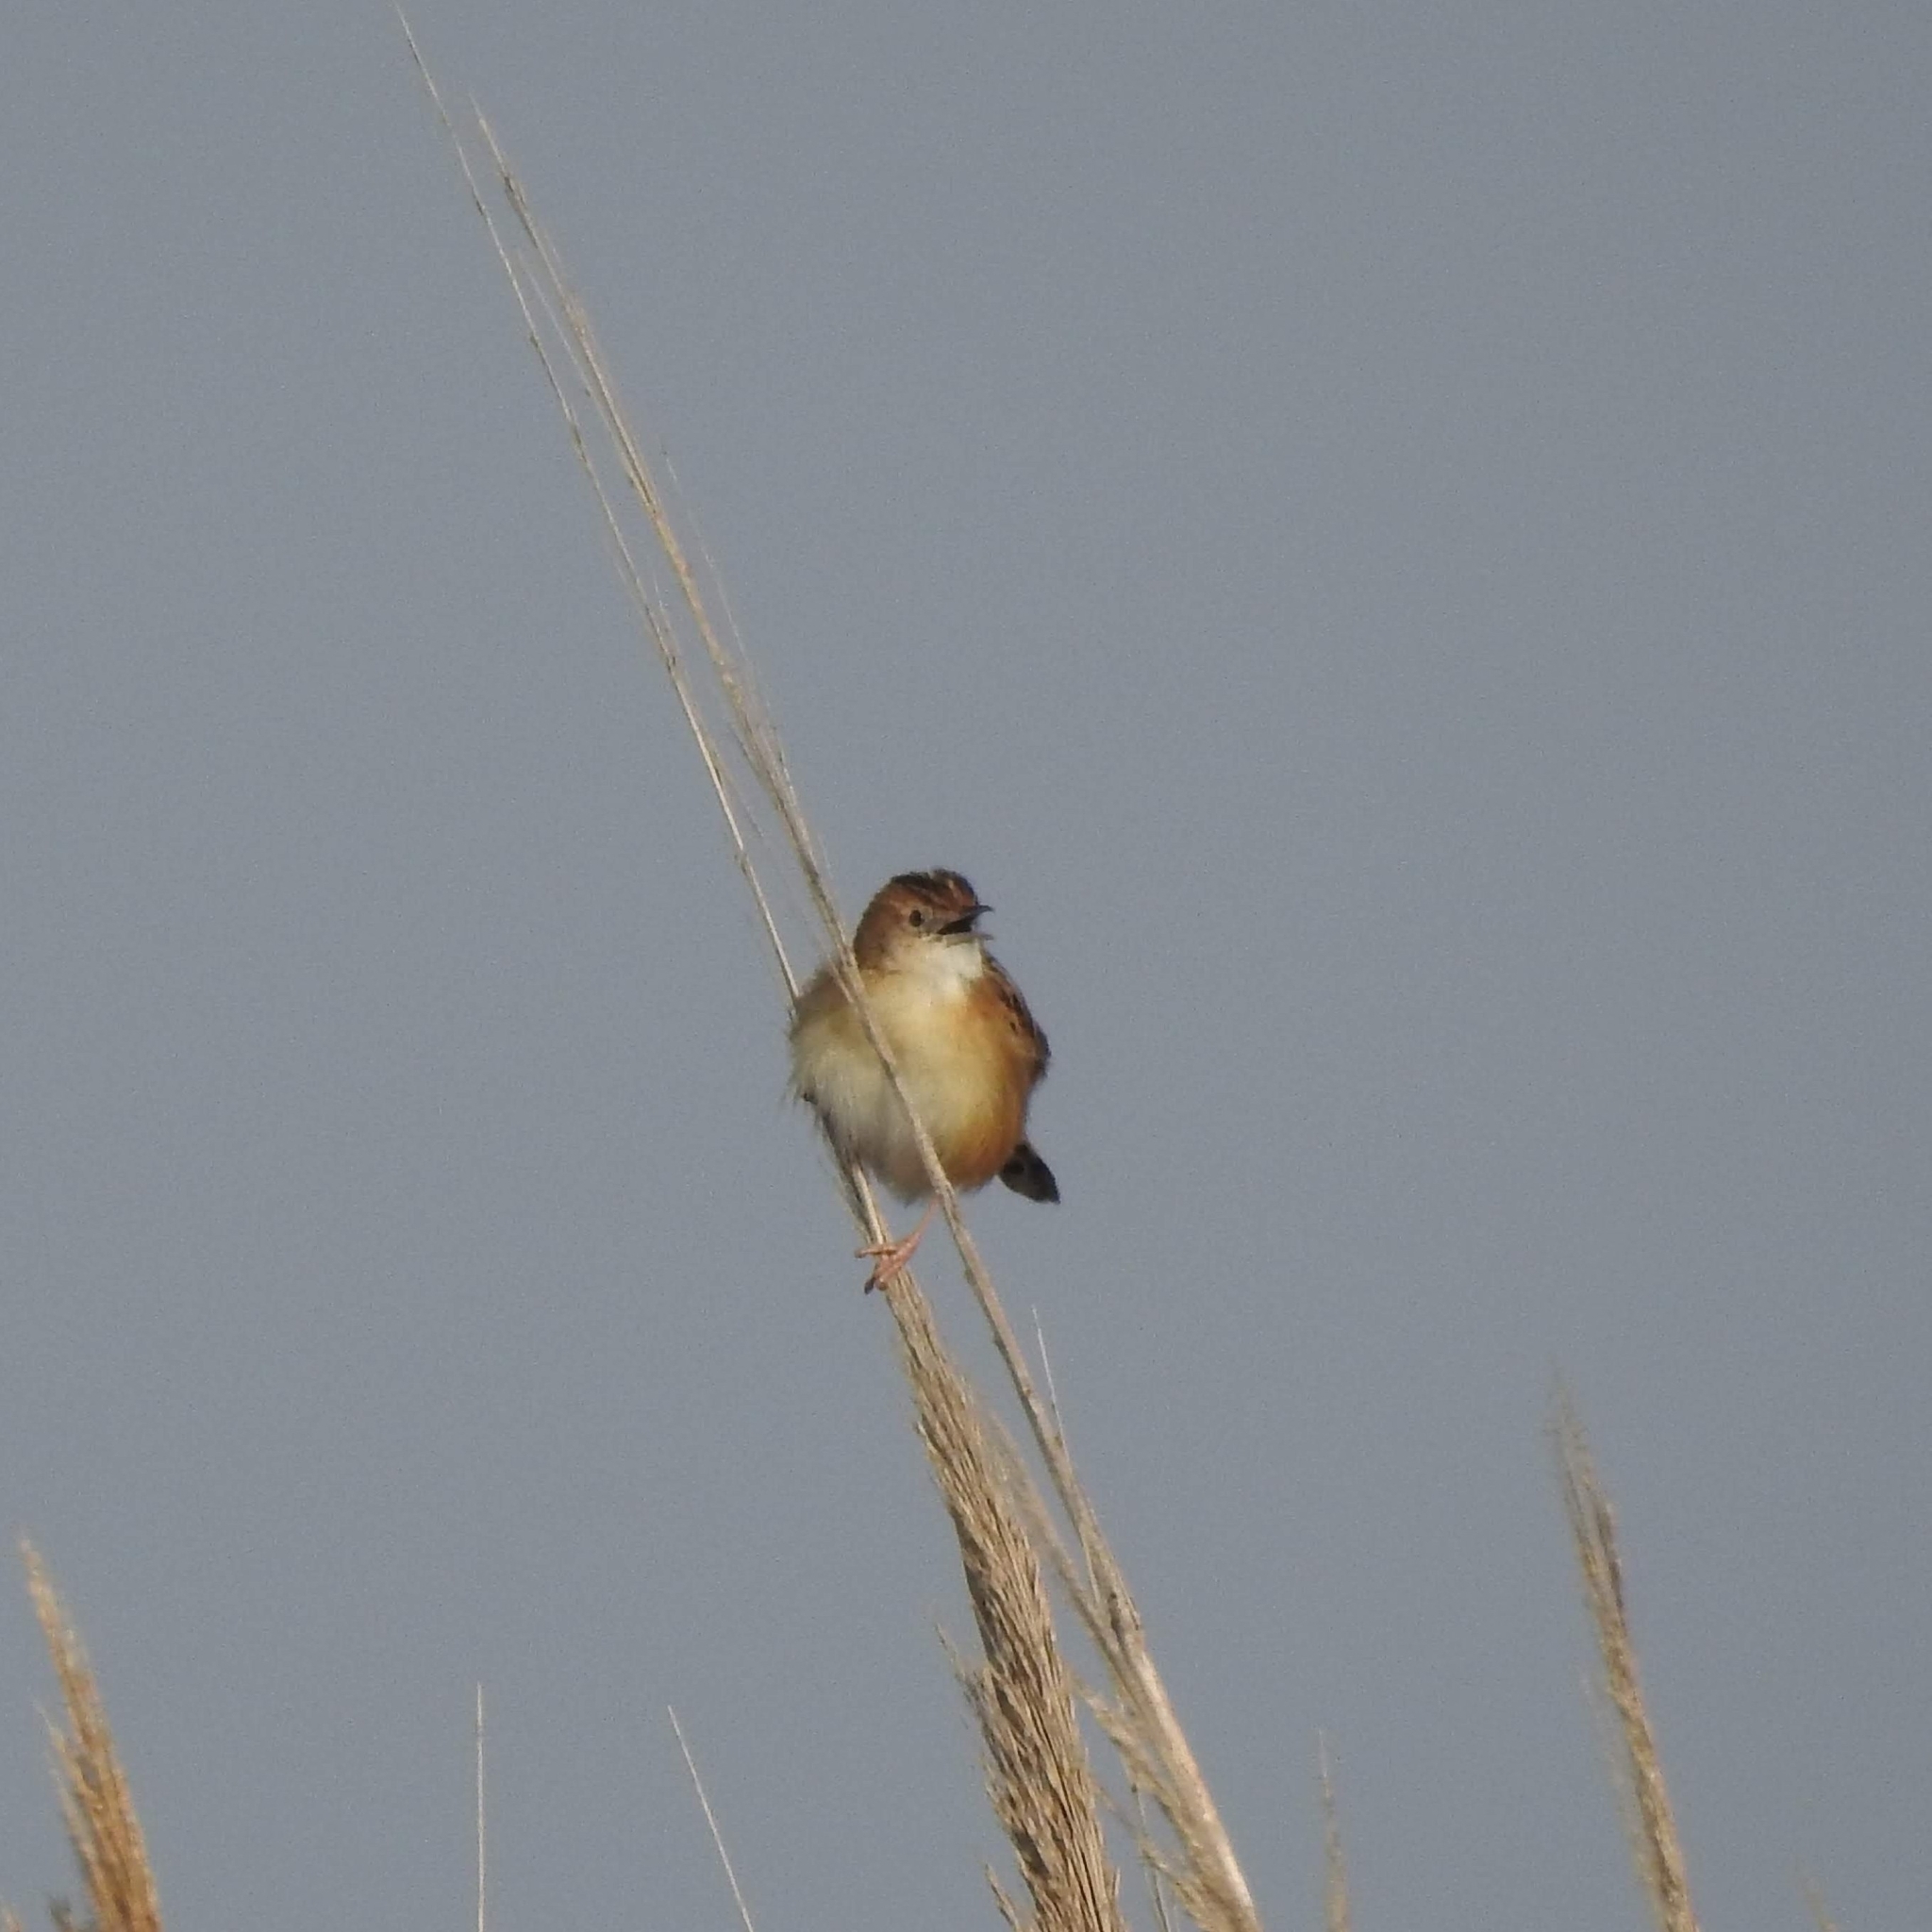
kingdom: Animalia
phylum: Chordata
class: Aves
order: Passeriformes
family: Cisticolidae
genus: Cisticola
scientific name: Cisticola juncidis
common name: Zitting cisticola
